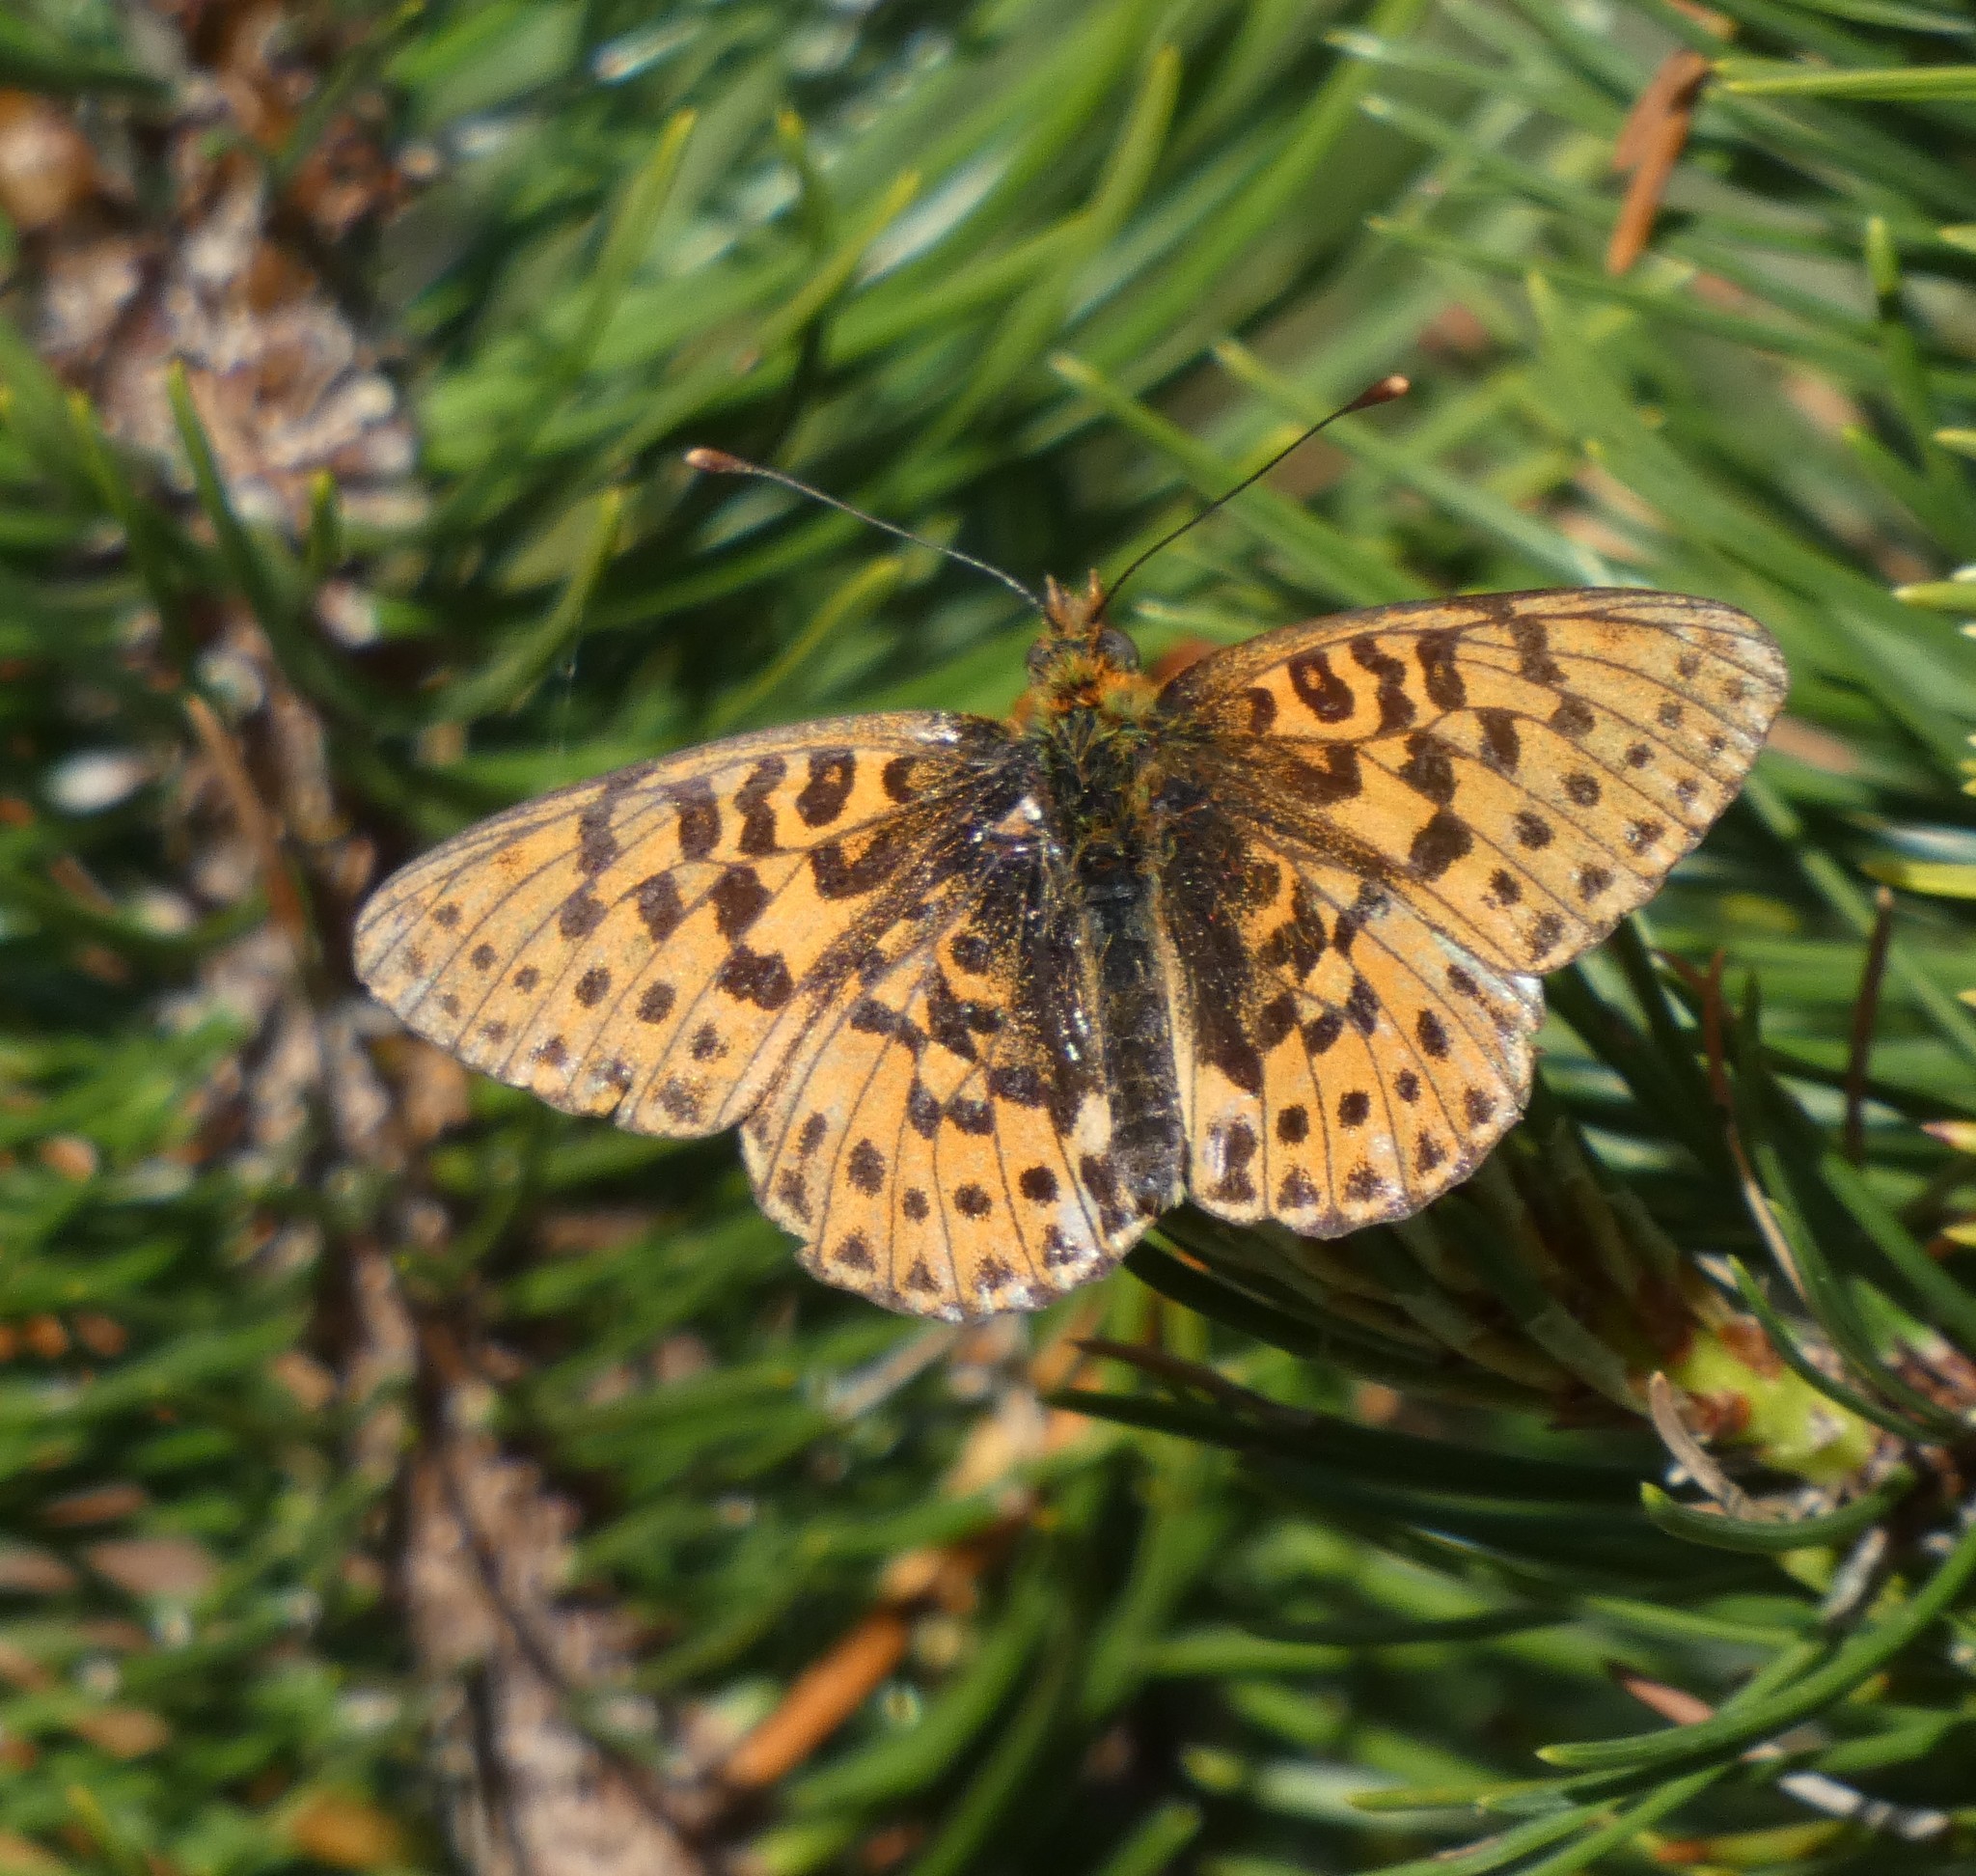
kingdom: Animalia
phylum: Arthropoda
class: Insecta
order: Lepidoptera
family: Nymphalidae
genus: Clossiana
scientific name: Clossiana euphrosyne
